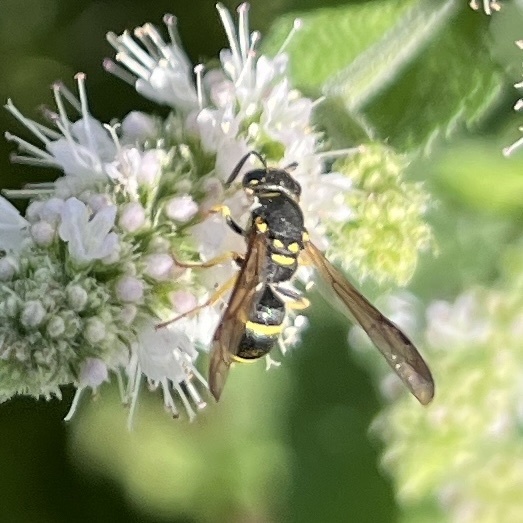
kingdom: Animalia
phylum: Arthropoda
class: Insecta
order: Hymenoptera
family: Vespidae
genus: Ancistrocerus
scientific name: Ancistrocerus adiabatus
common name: Bramble mason wasp
